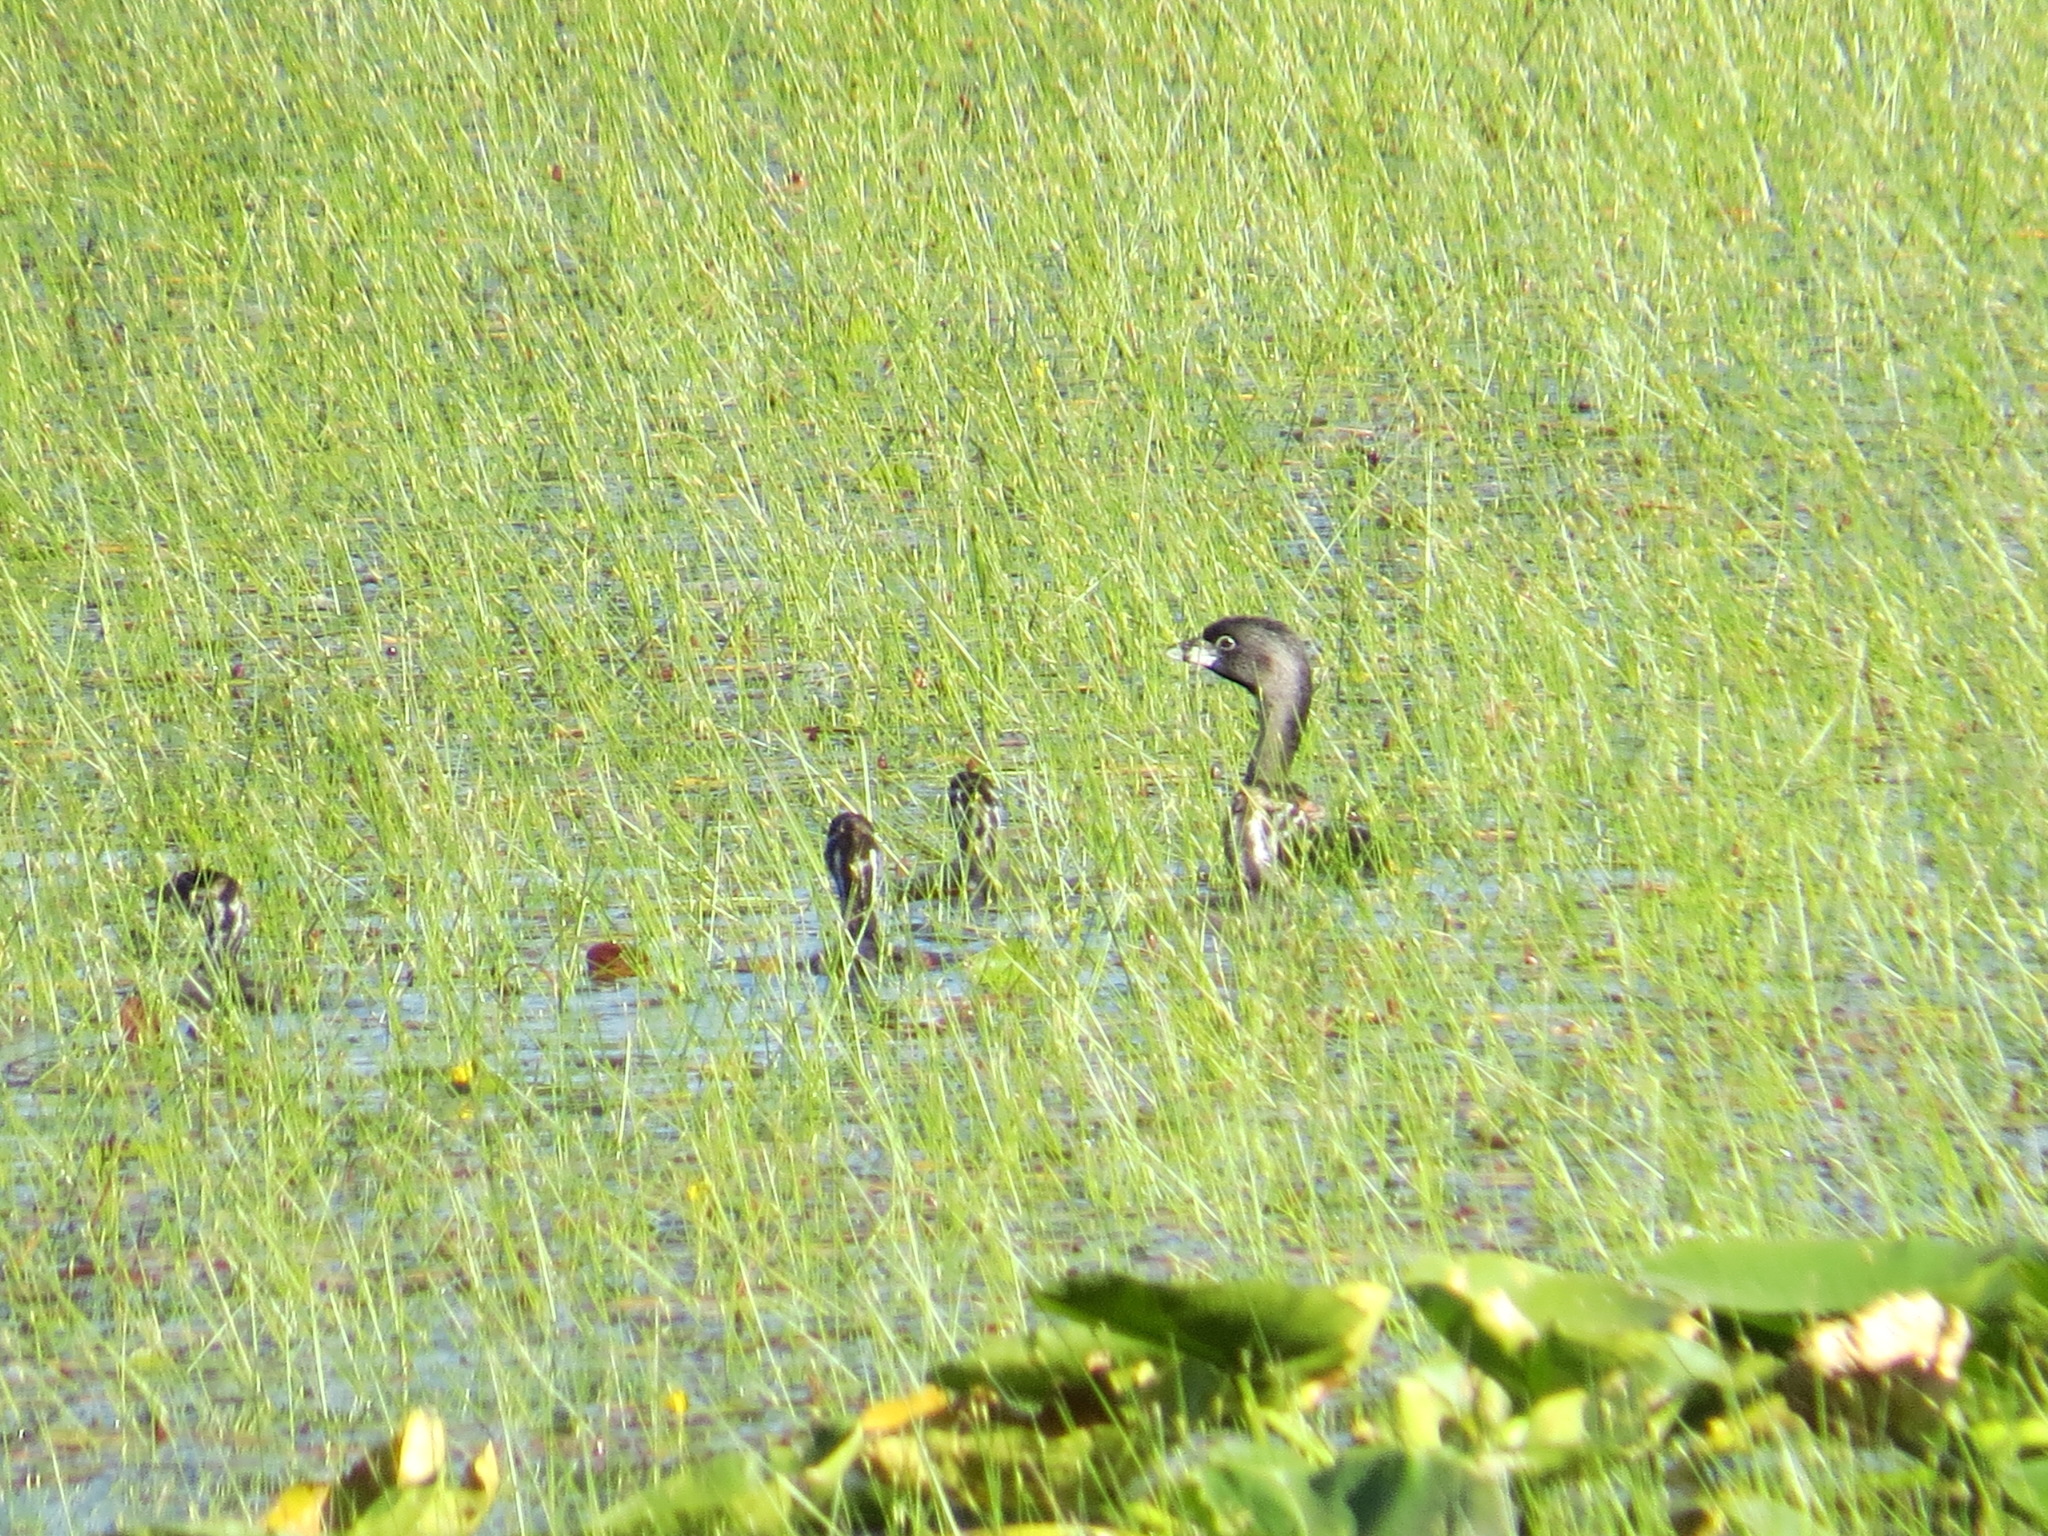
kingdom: Animalia
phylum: Chordata
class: Aves
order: Podicipediformes
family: Podicipedidae
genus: Podilymbus
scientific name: Podilymbus podiceps
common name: Pied-billed grebe
